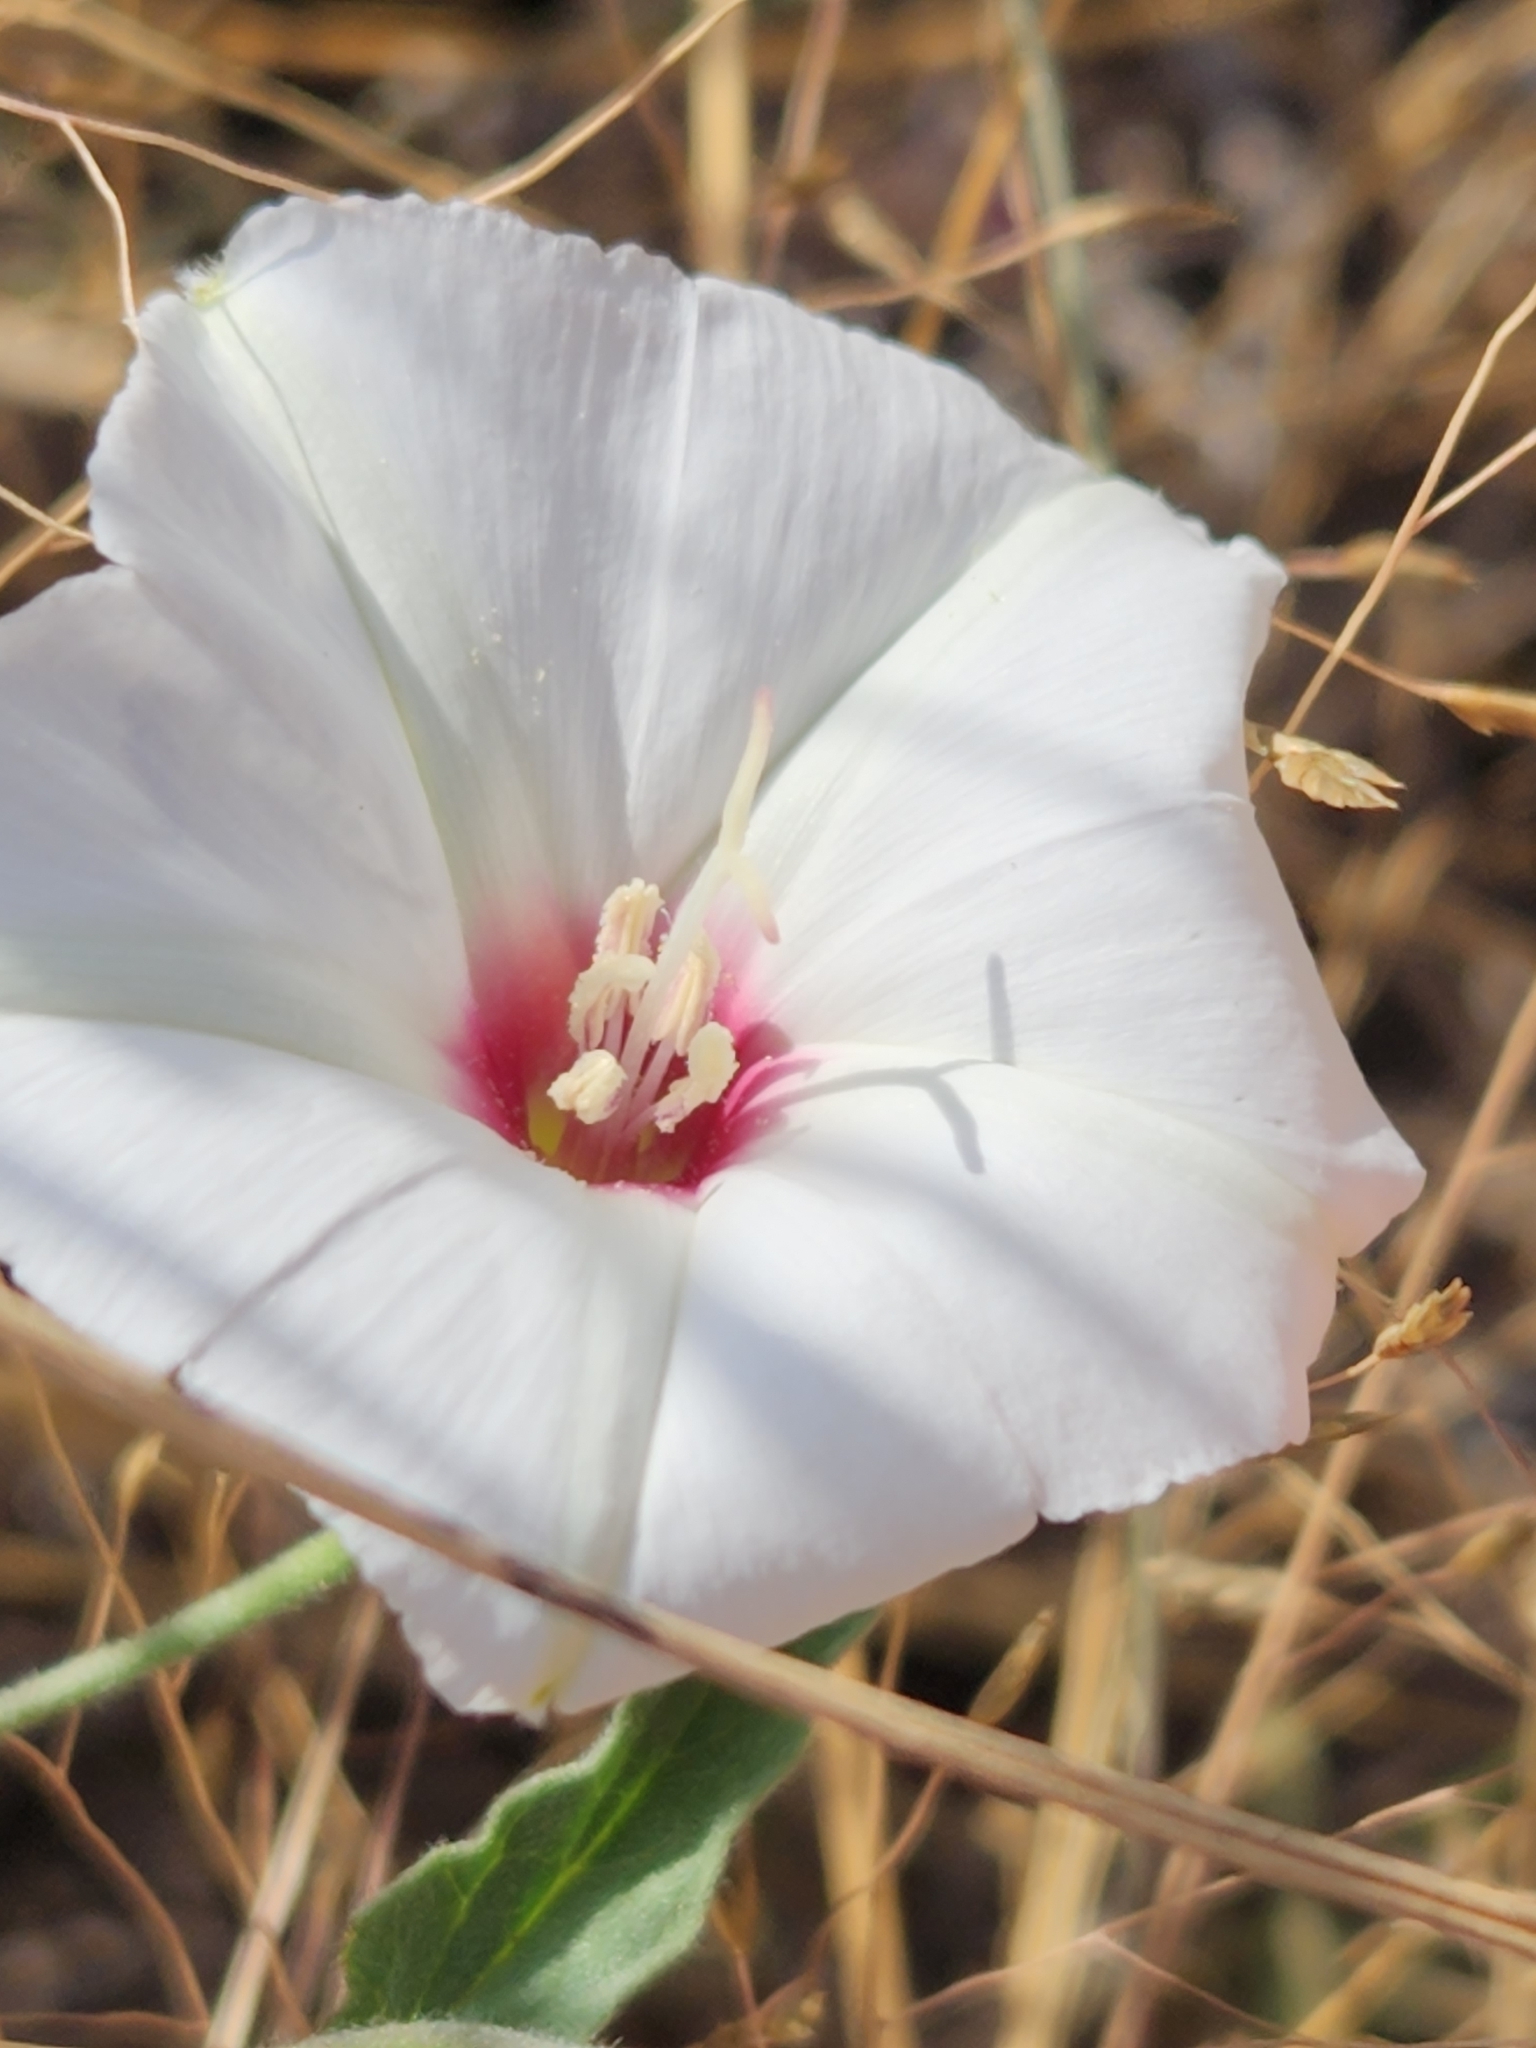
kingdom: Plantae
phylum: Tracheophyta
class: Magnoliopsida
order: Solanales
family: Convolvulaceae
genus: Convolvulus
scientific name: Convolvulus equitans
